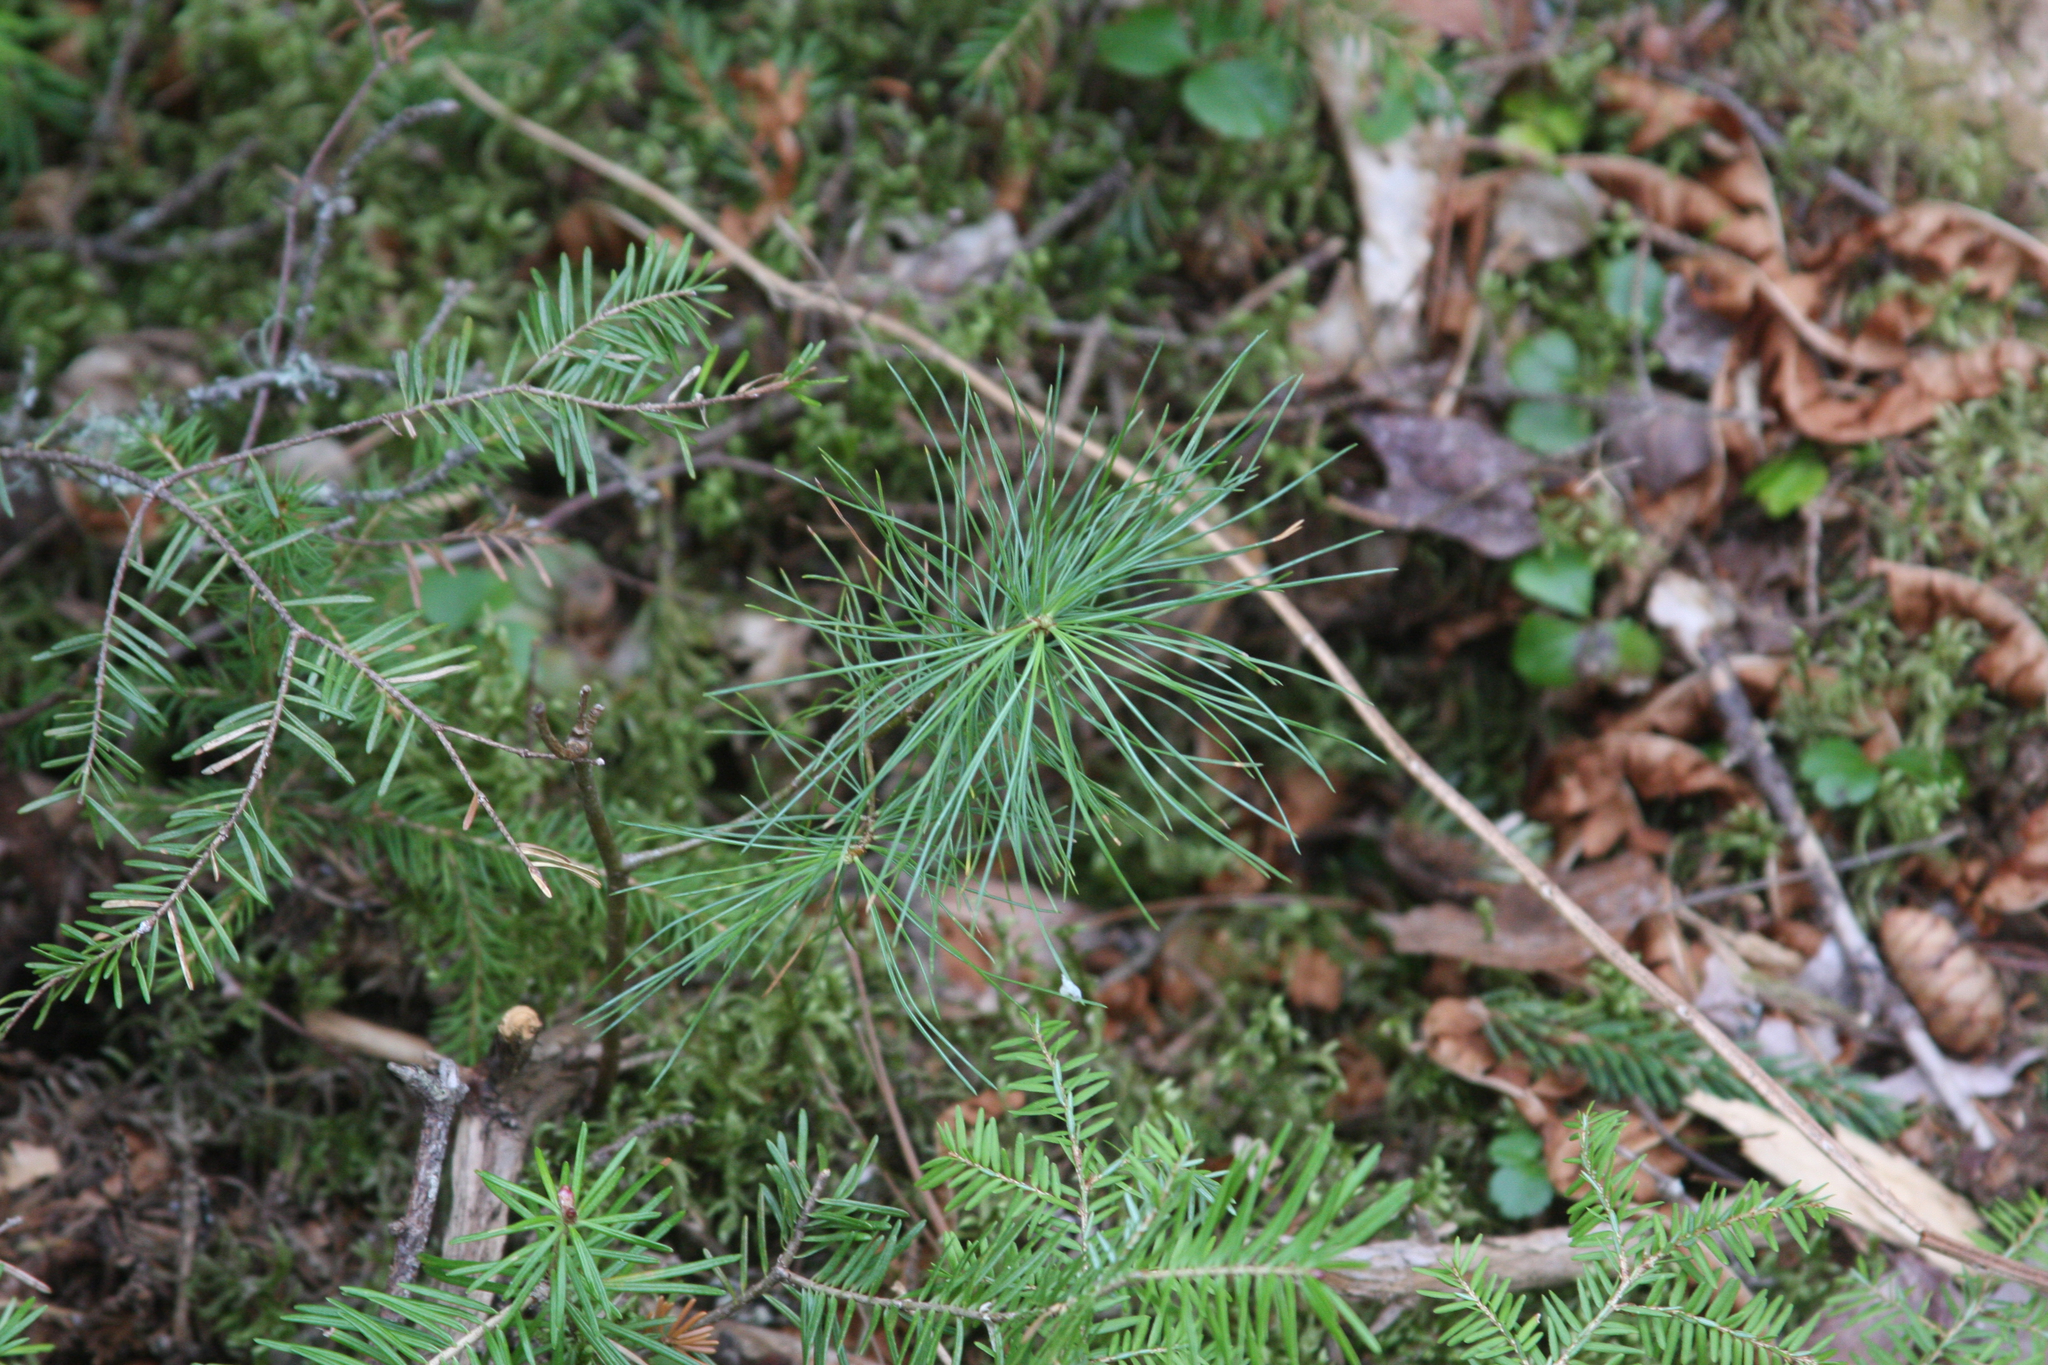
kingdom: Plantae
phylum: Tracheophyta
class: Pinopsida
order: Pinales
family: Pinaceae
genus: Pinus
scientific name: Pinus strobus
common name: Weymouth pine
